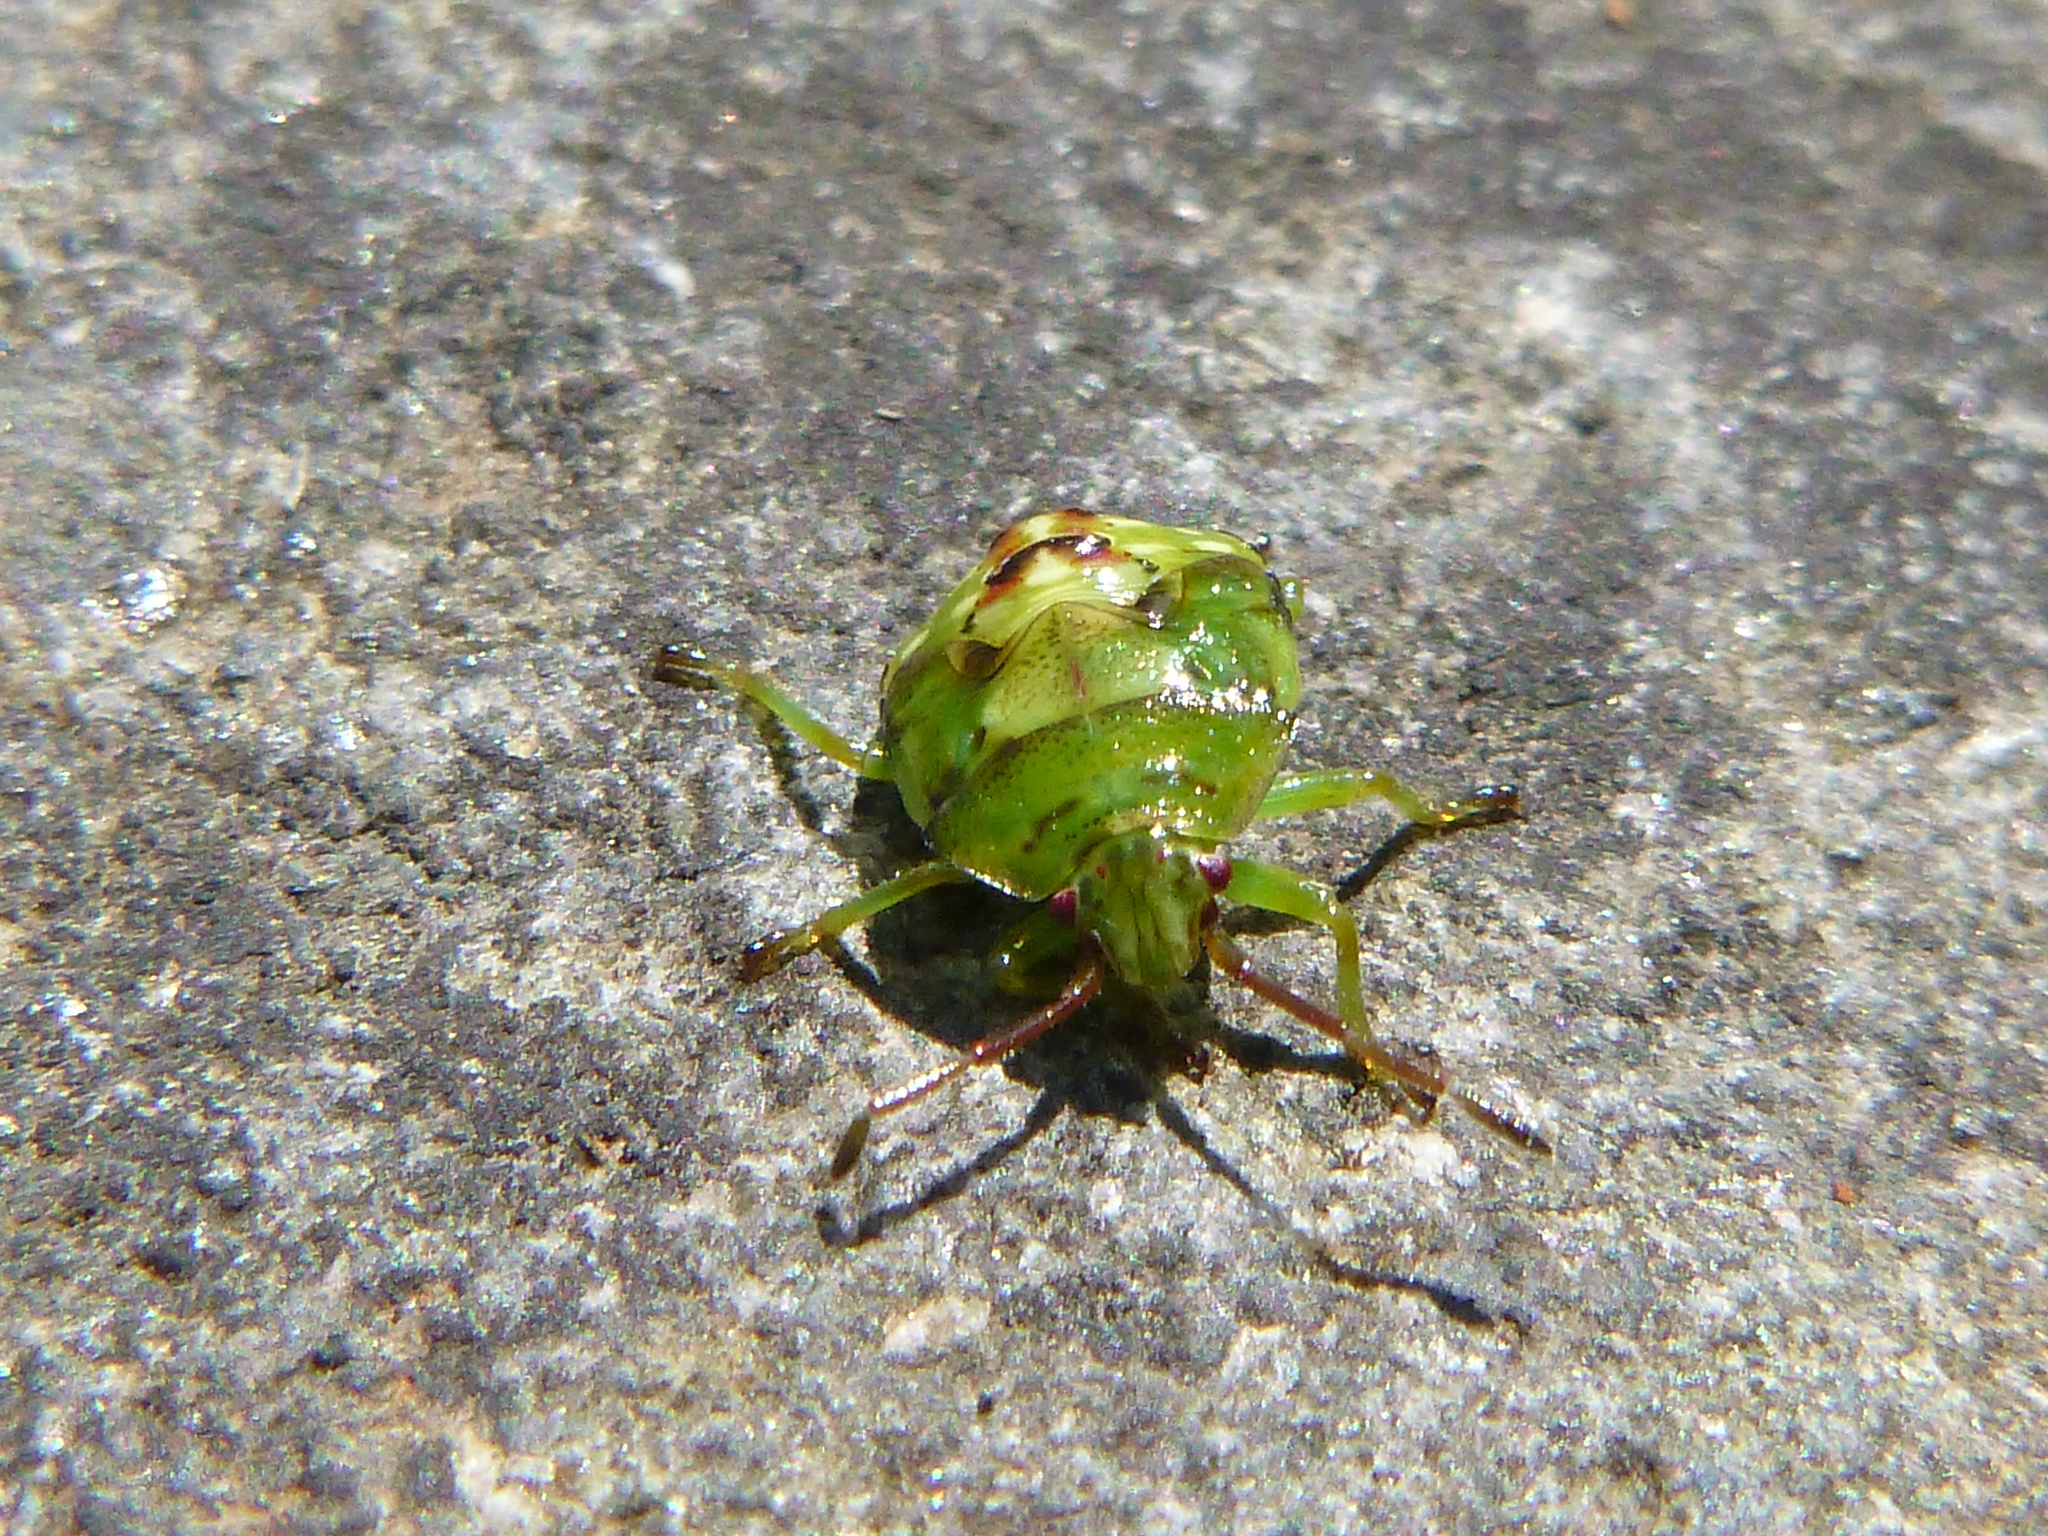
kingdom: Animalia
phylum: Arthropoda
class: Insecta
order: Hemiptera
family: Acanthosomatidae
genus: Elasmostethus
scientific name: Elasmostethus cruciatus
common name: Red-cross shield bug
